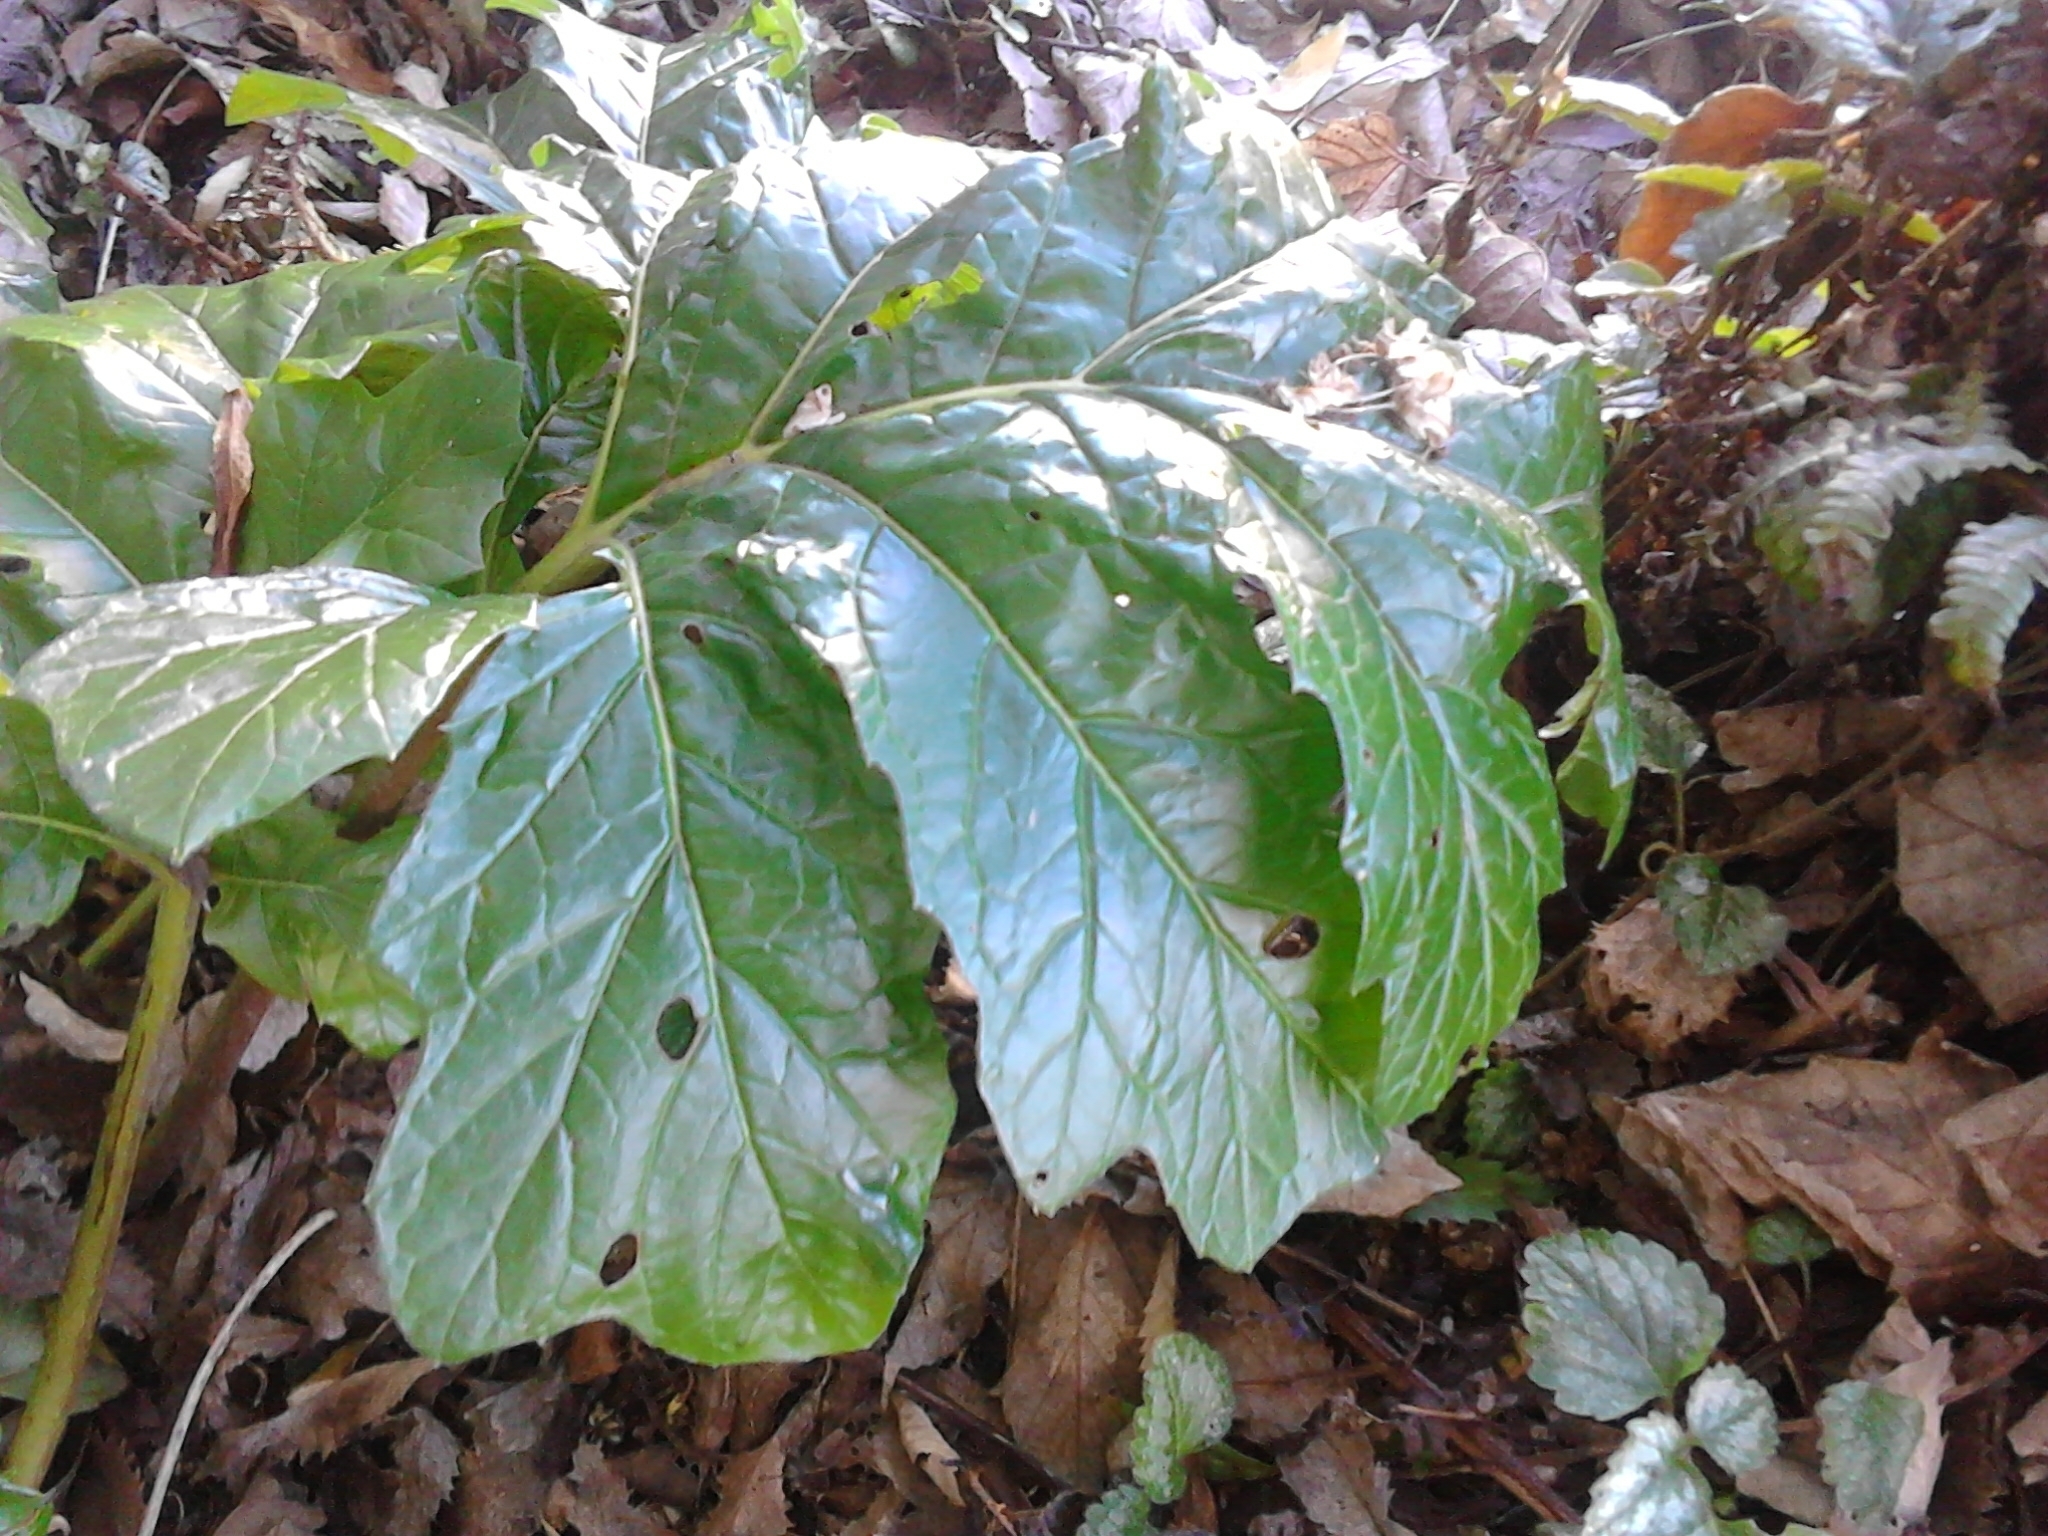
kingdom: Plantae
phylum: Tracheophyta
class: Magnoliopsida
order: Lamiales
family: Acanthaceae
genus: Acanthus
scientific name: Acanthus mollis
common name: Bear's-breech
